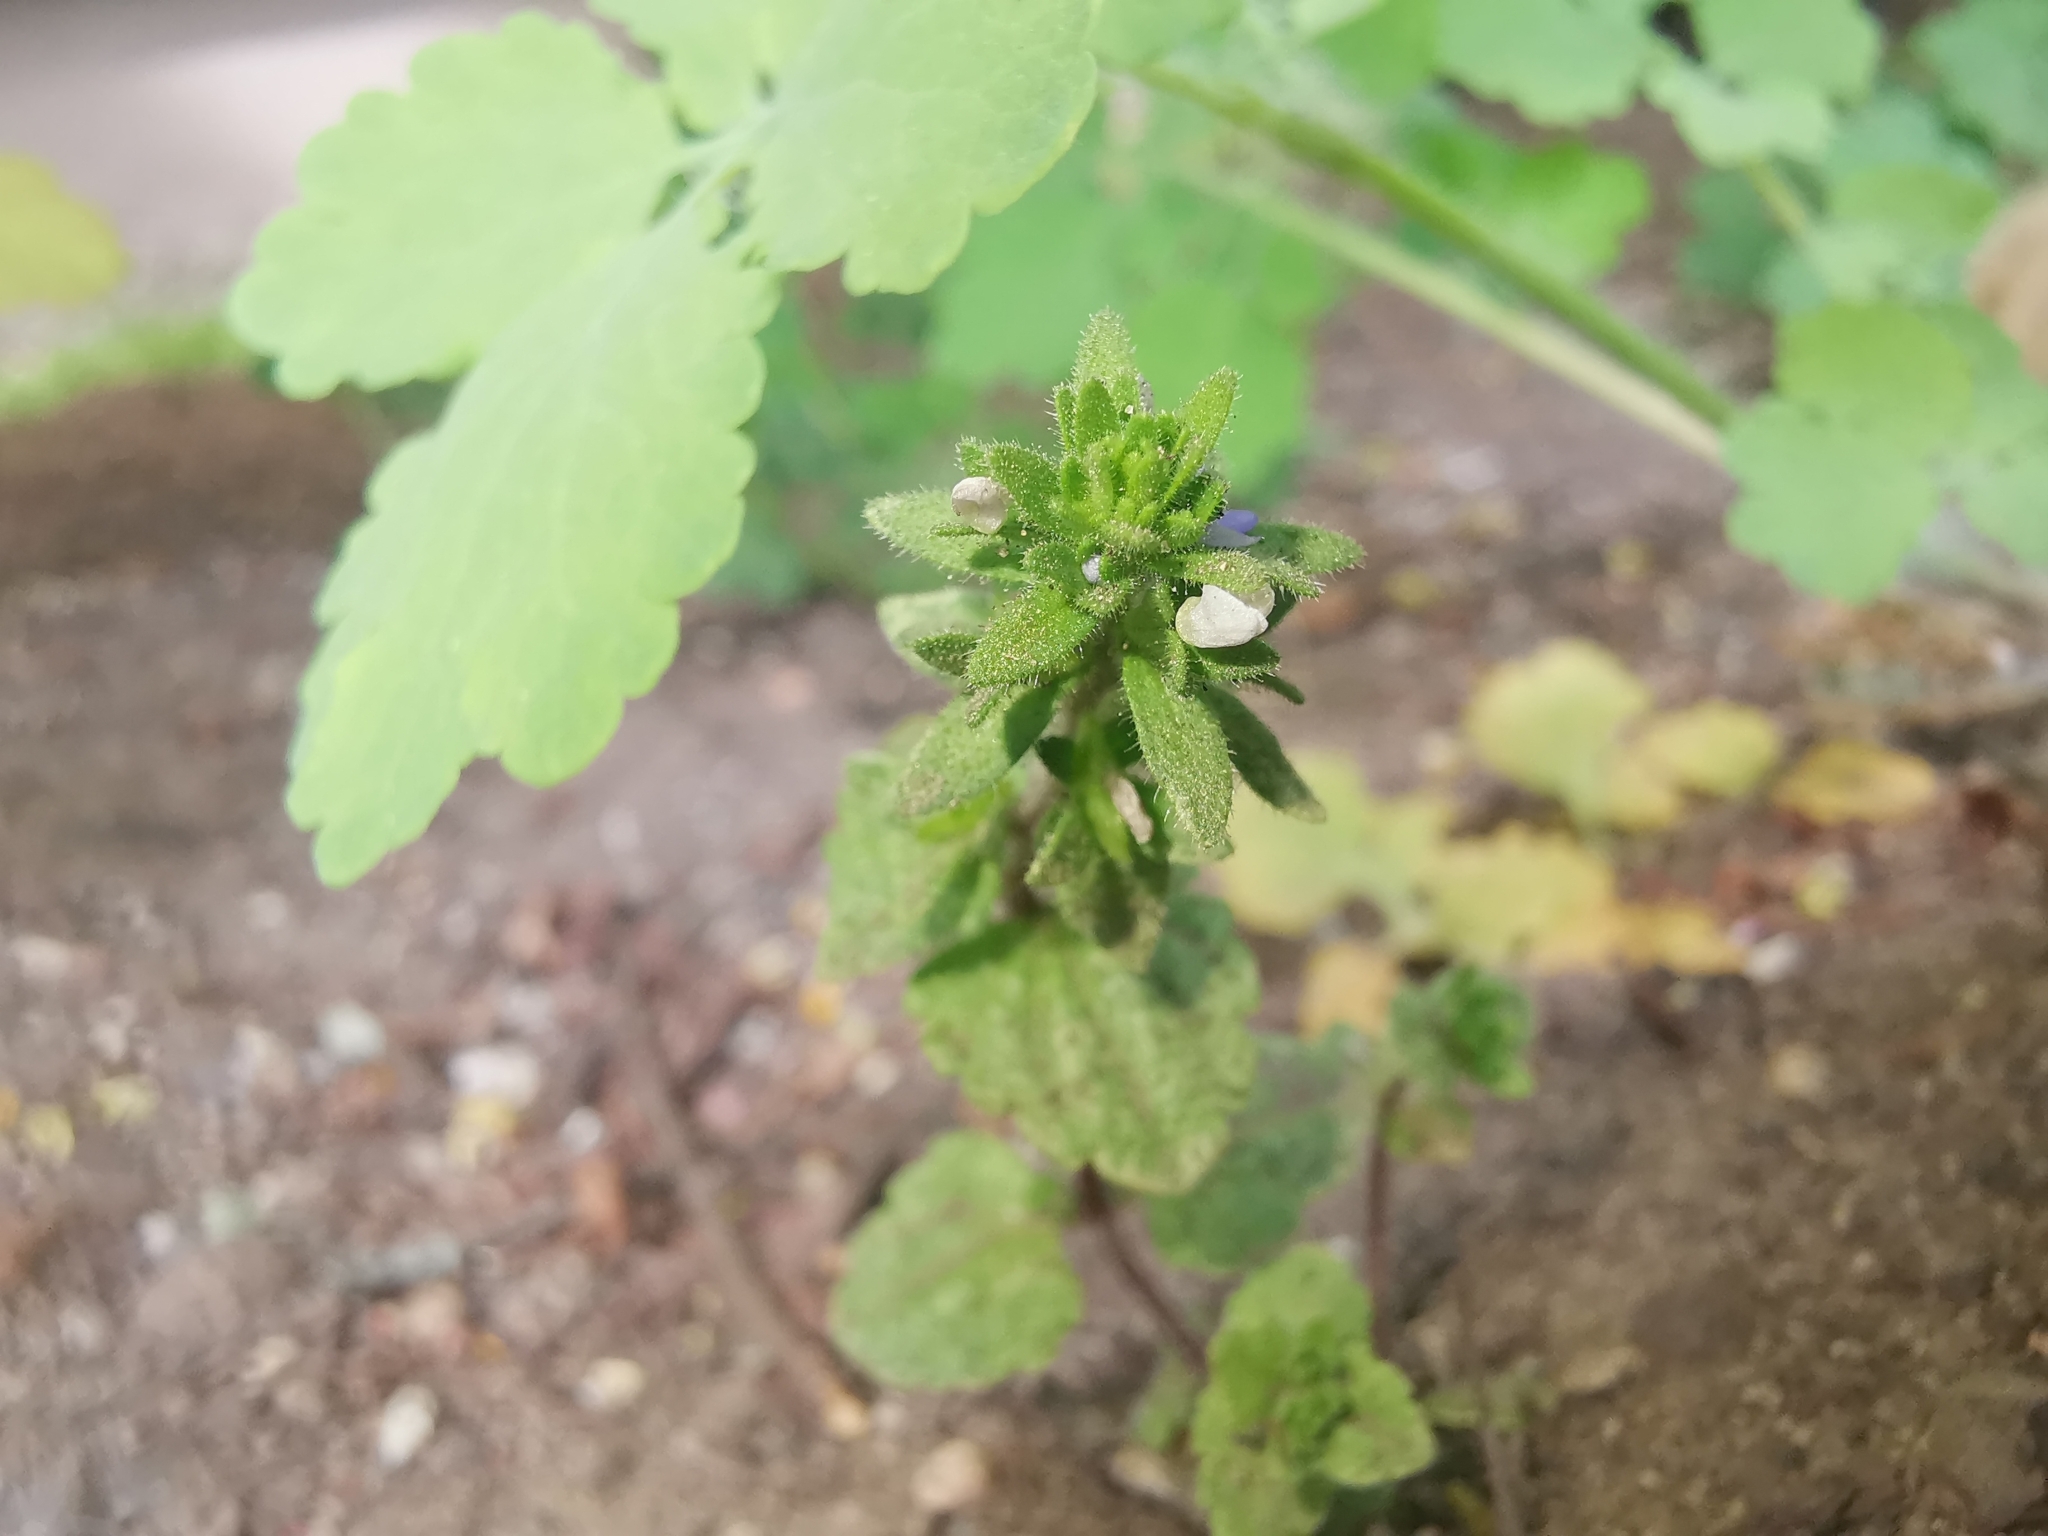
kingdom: Plantae
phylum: Tracheophyta
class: Magnoliopsida
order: Lamiales
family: Plantaginaceae
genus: Veronica
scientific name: Veronica arvensis
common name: Corn speedwell
